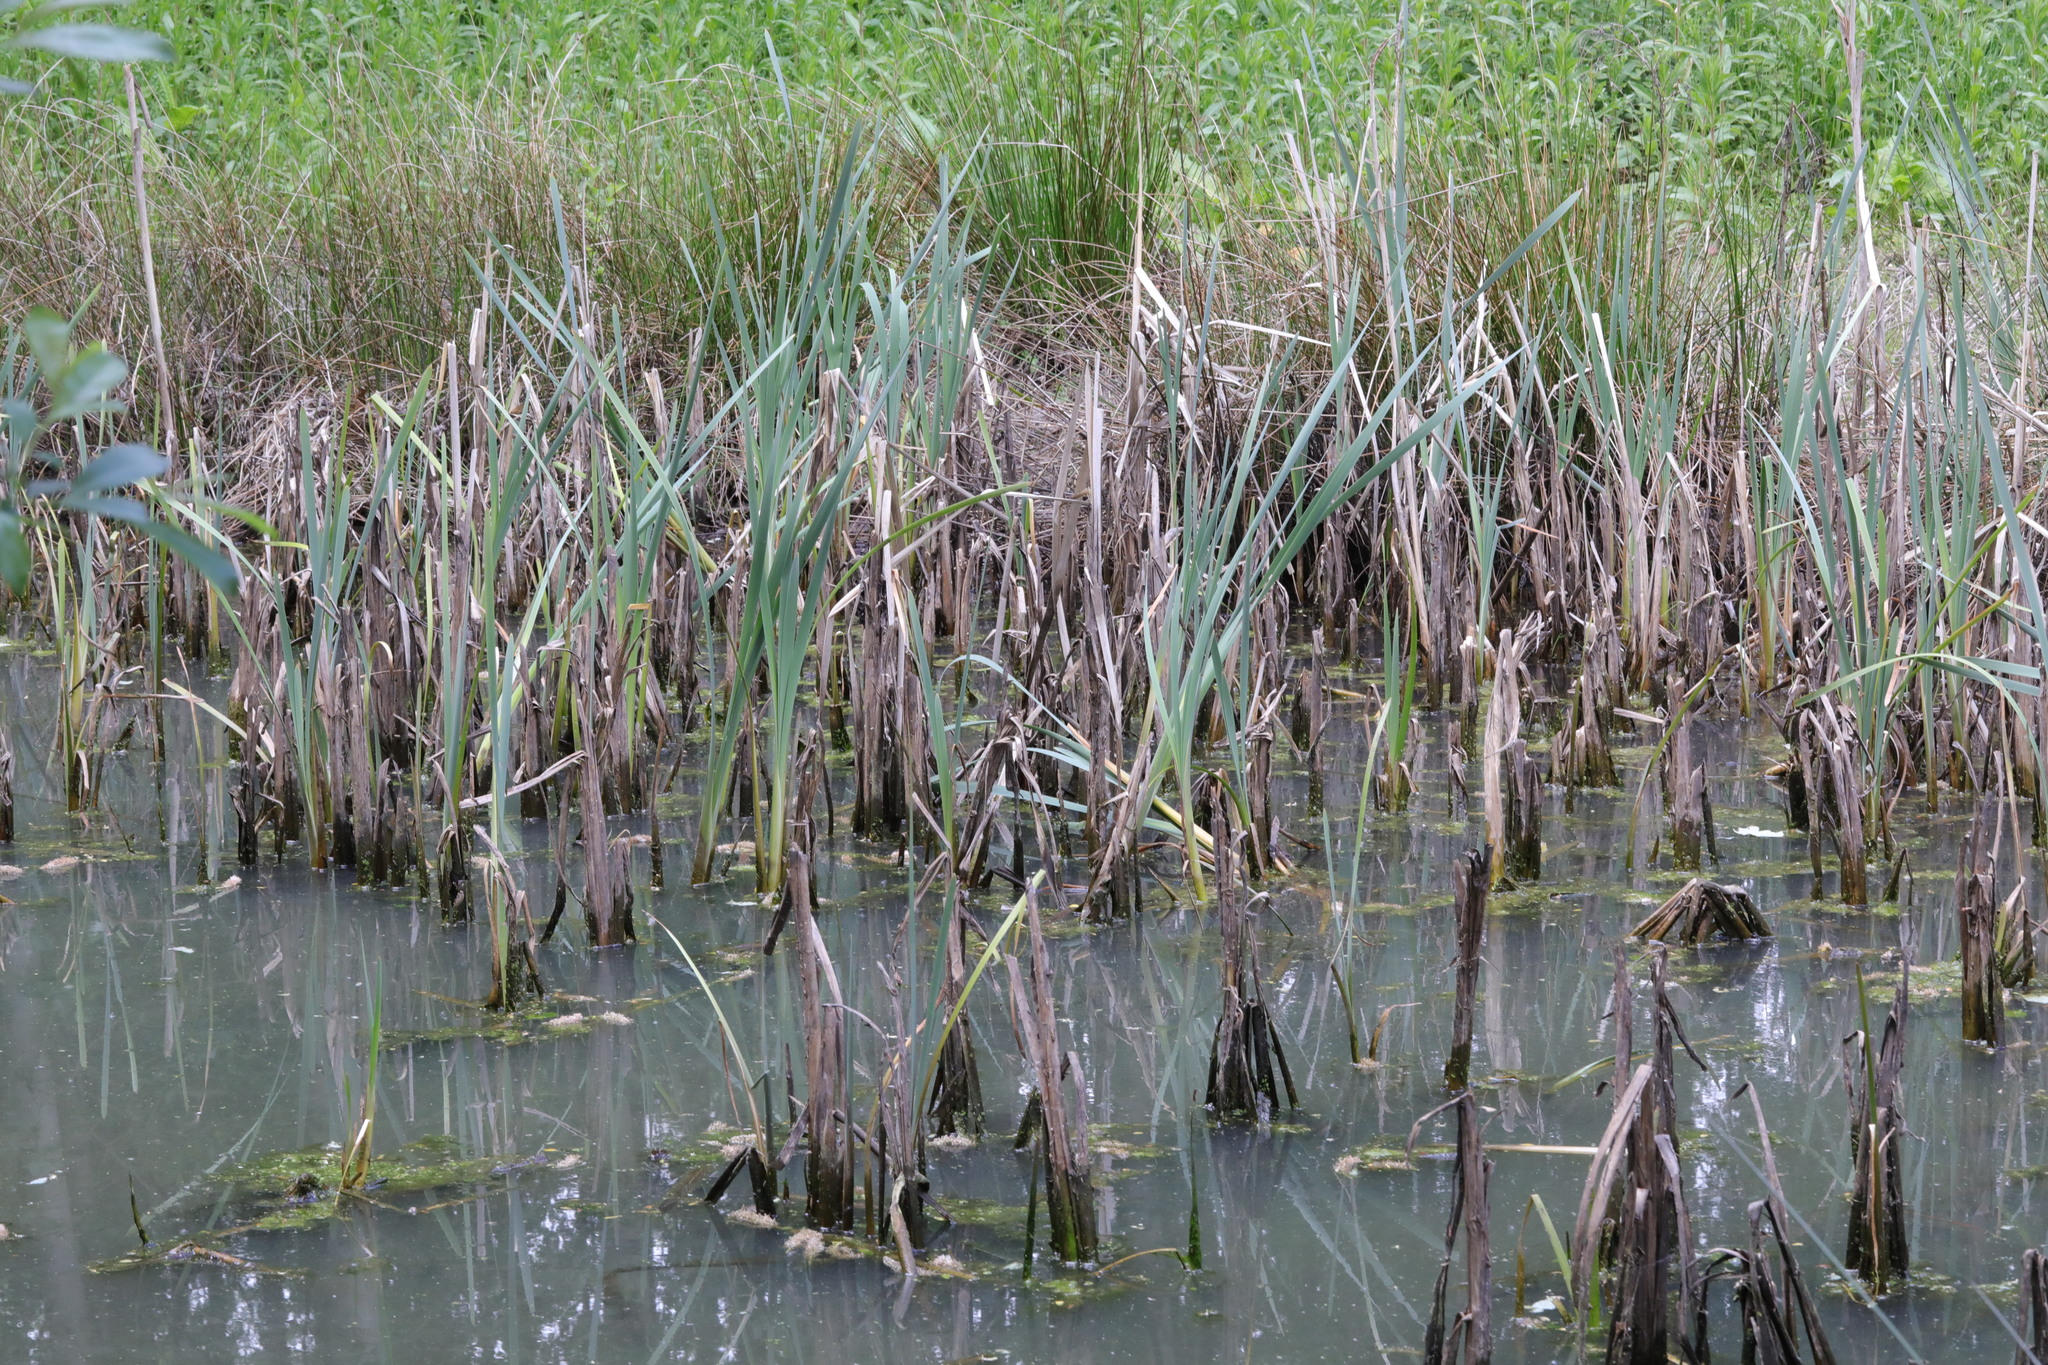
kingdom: Plantae
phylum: Tracheophyta
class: Liliopsida
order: Poales
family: Typhaceae
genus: Typha
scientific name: Typha latifolia
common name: Broadleaf cattail
